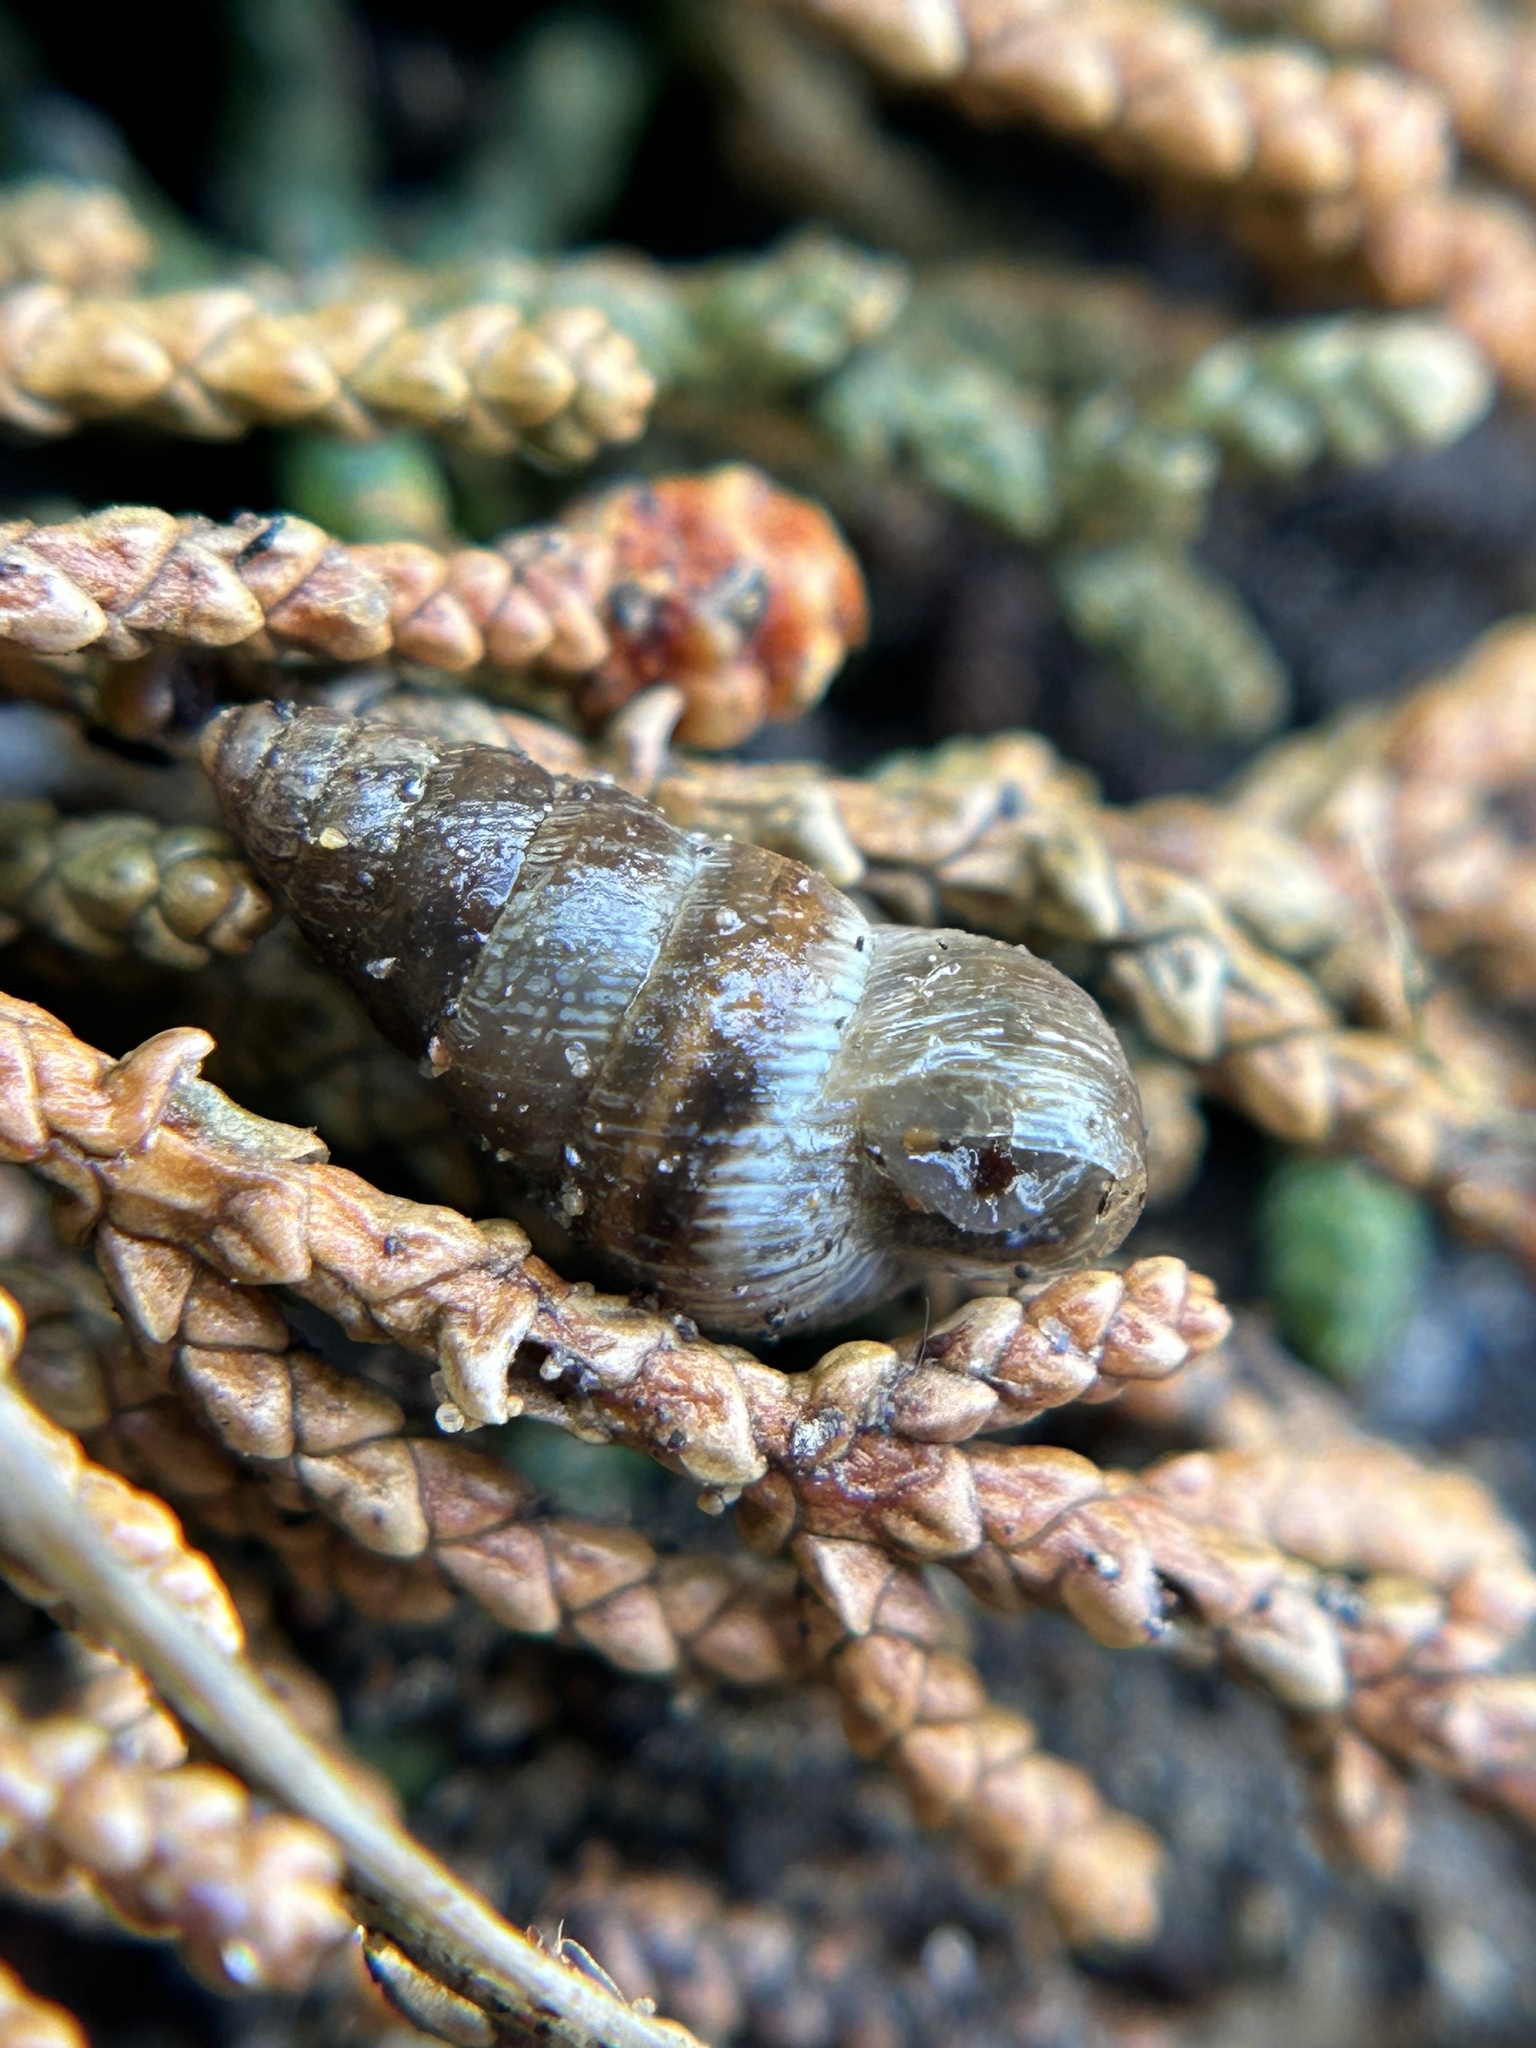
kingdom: Animalia
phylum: Mollusca
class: Gastropoda
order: Stylommatophora
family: Geomitridae
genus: Cochlicella
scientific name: Cochlicella barbara
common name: Potbellied helicellid
